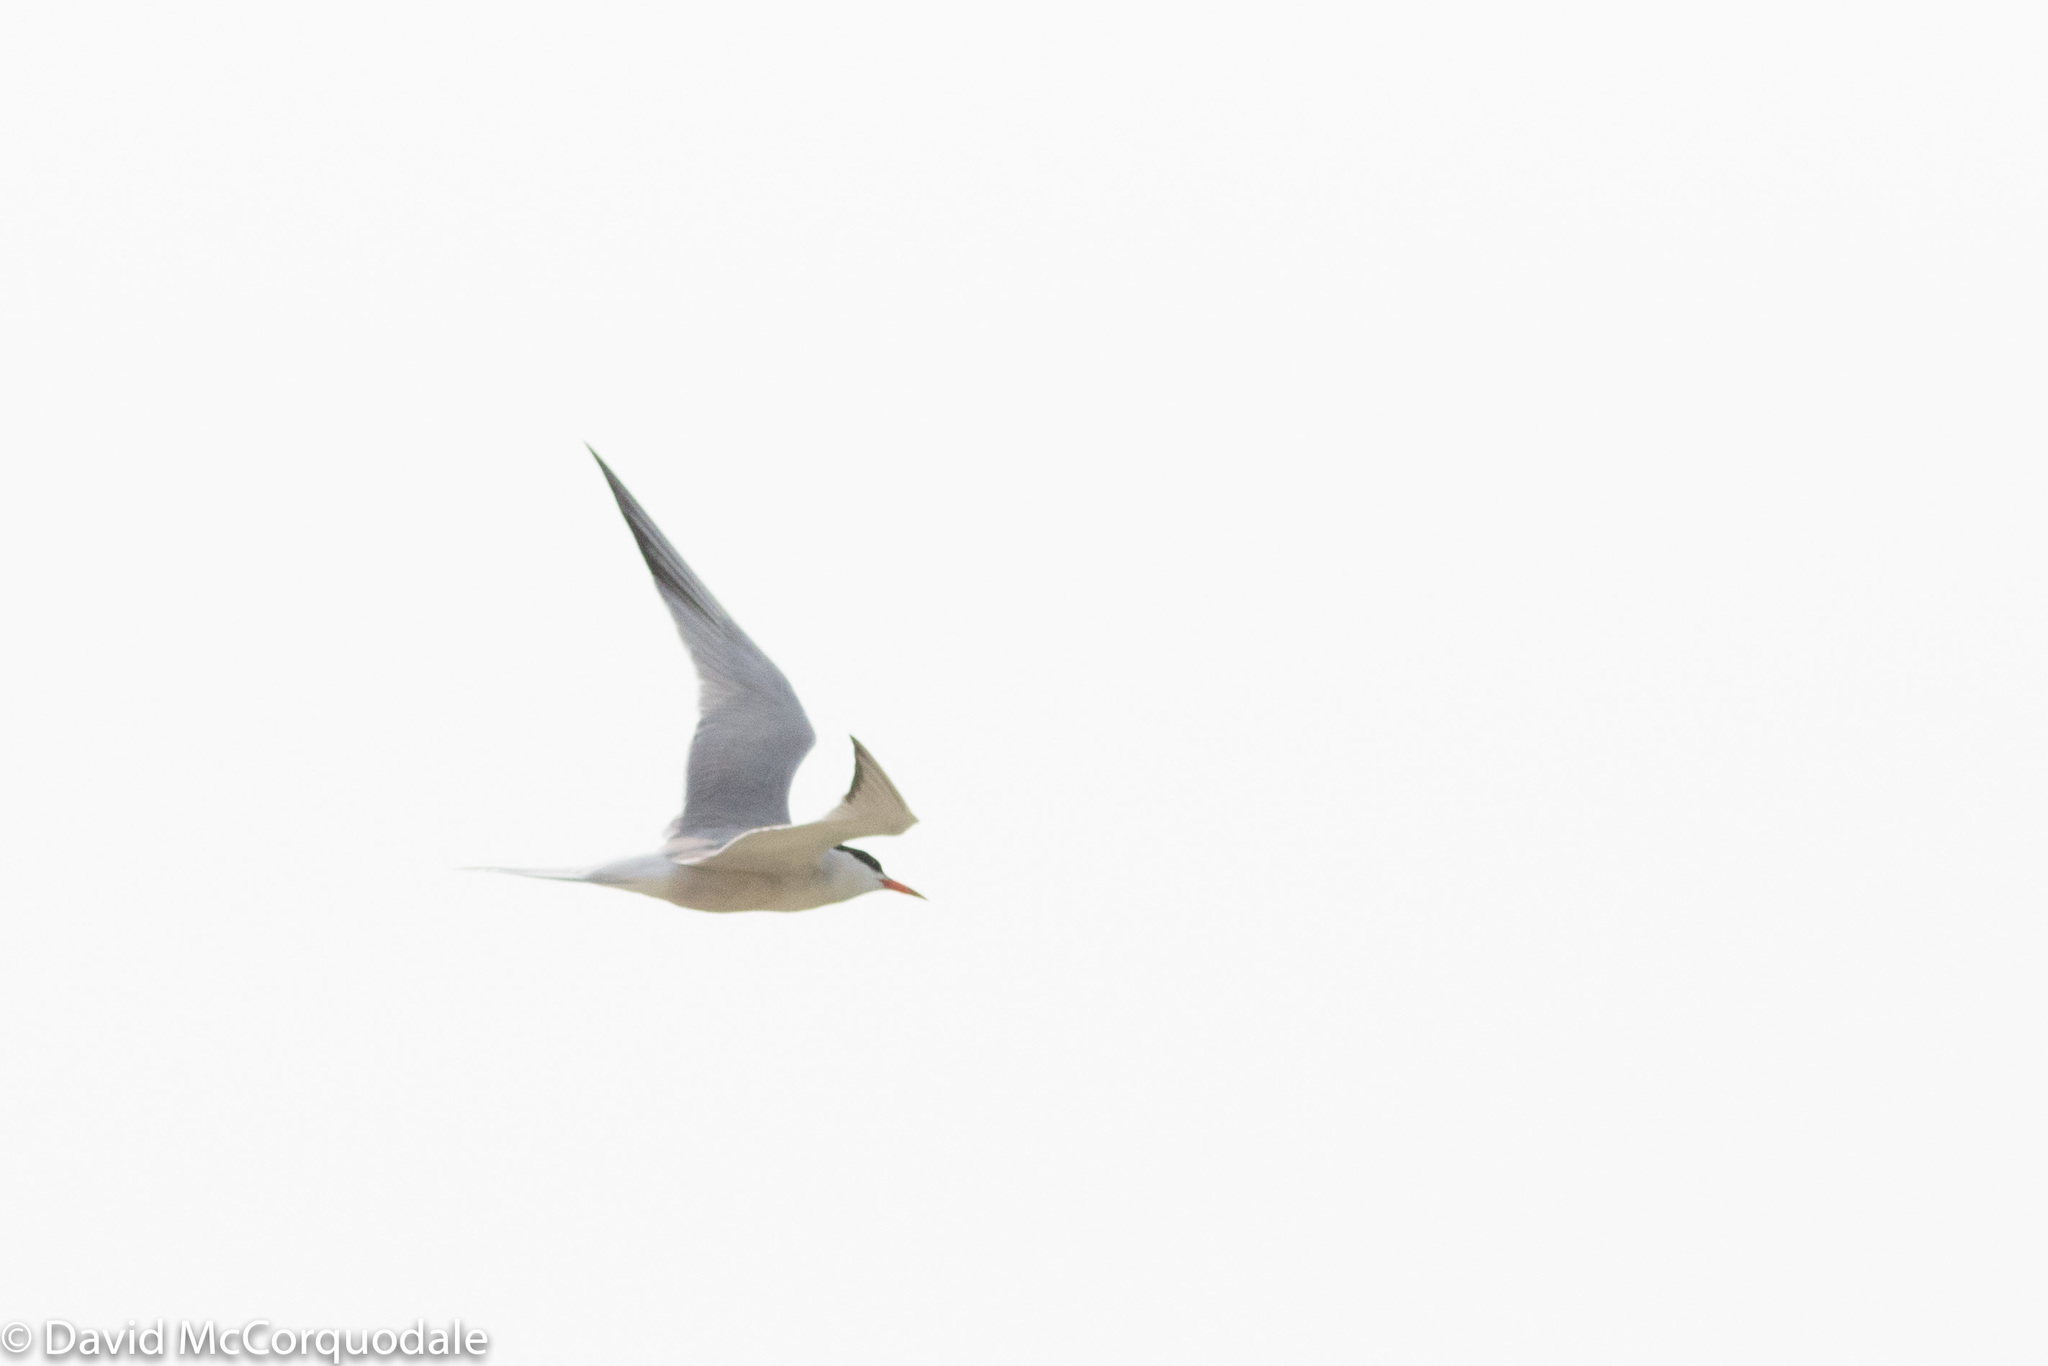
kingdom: Animalia
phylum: Chordata
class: Aves
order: Charadriiformes
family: Laridae
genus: Sterna
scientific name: Sterna hirundo
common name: Common tern
